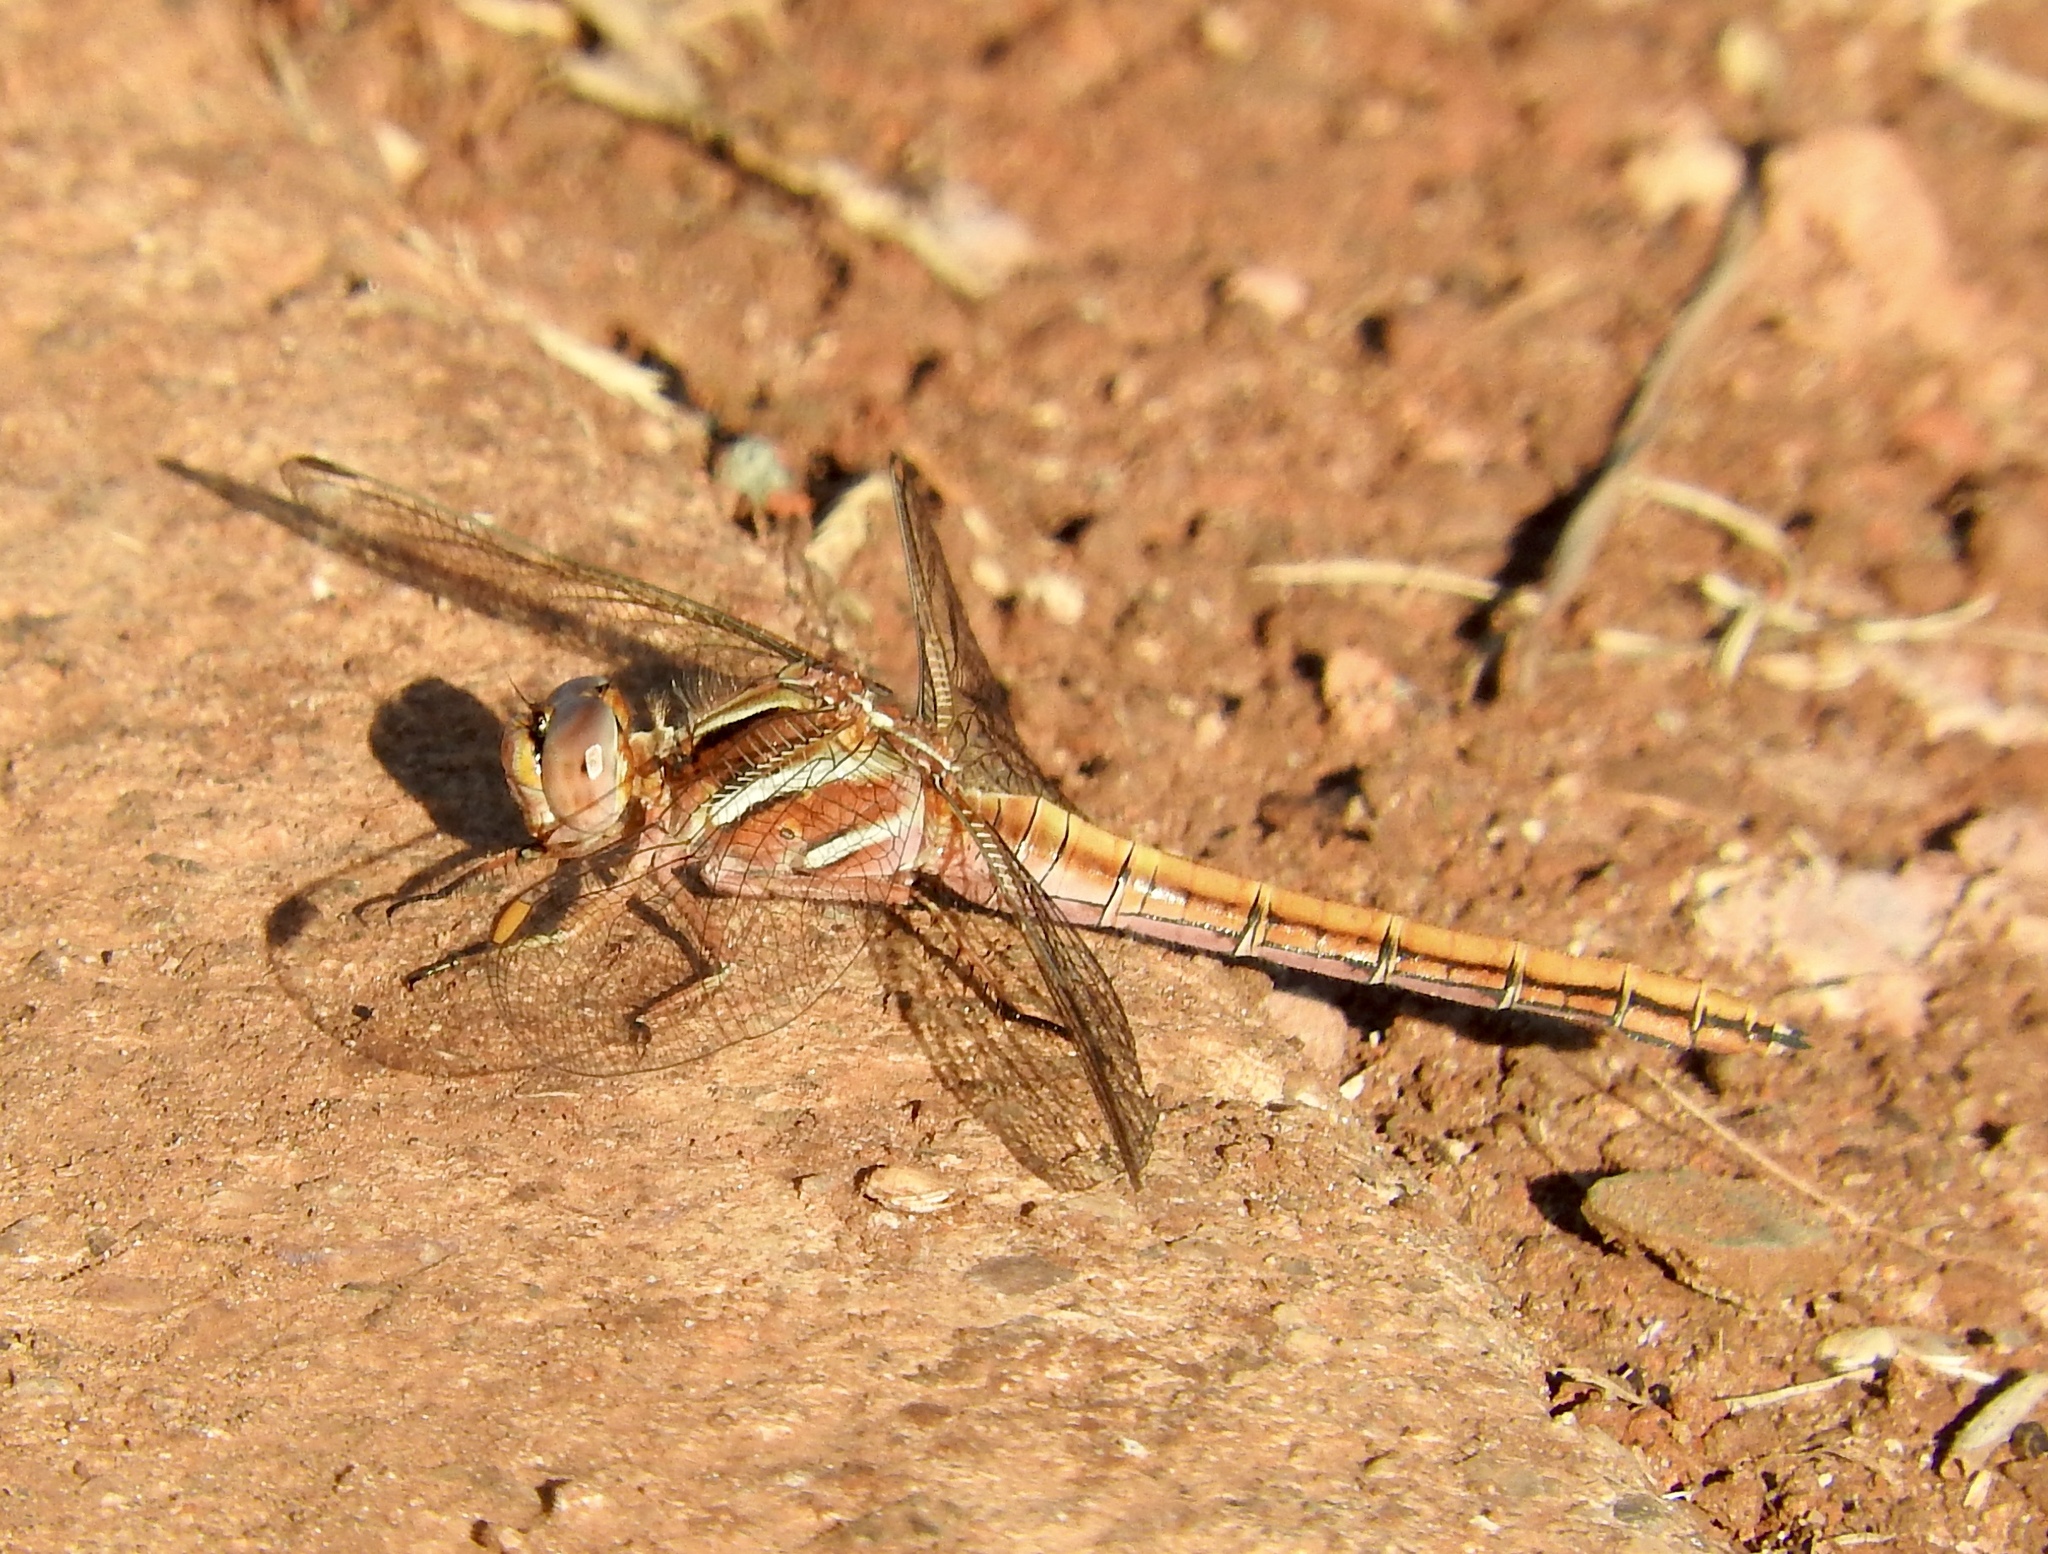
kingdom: Animalia
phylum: Arthropoda
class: Insecta
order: Odonata
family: Libellulidae
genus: Orthetrum
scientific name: Orthetrum caffrum
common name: Two-striped skimmer
